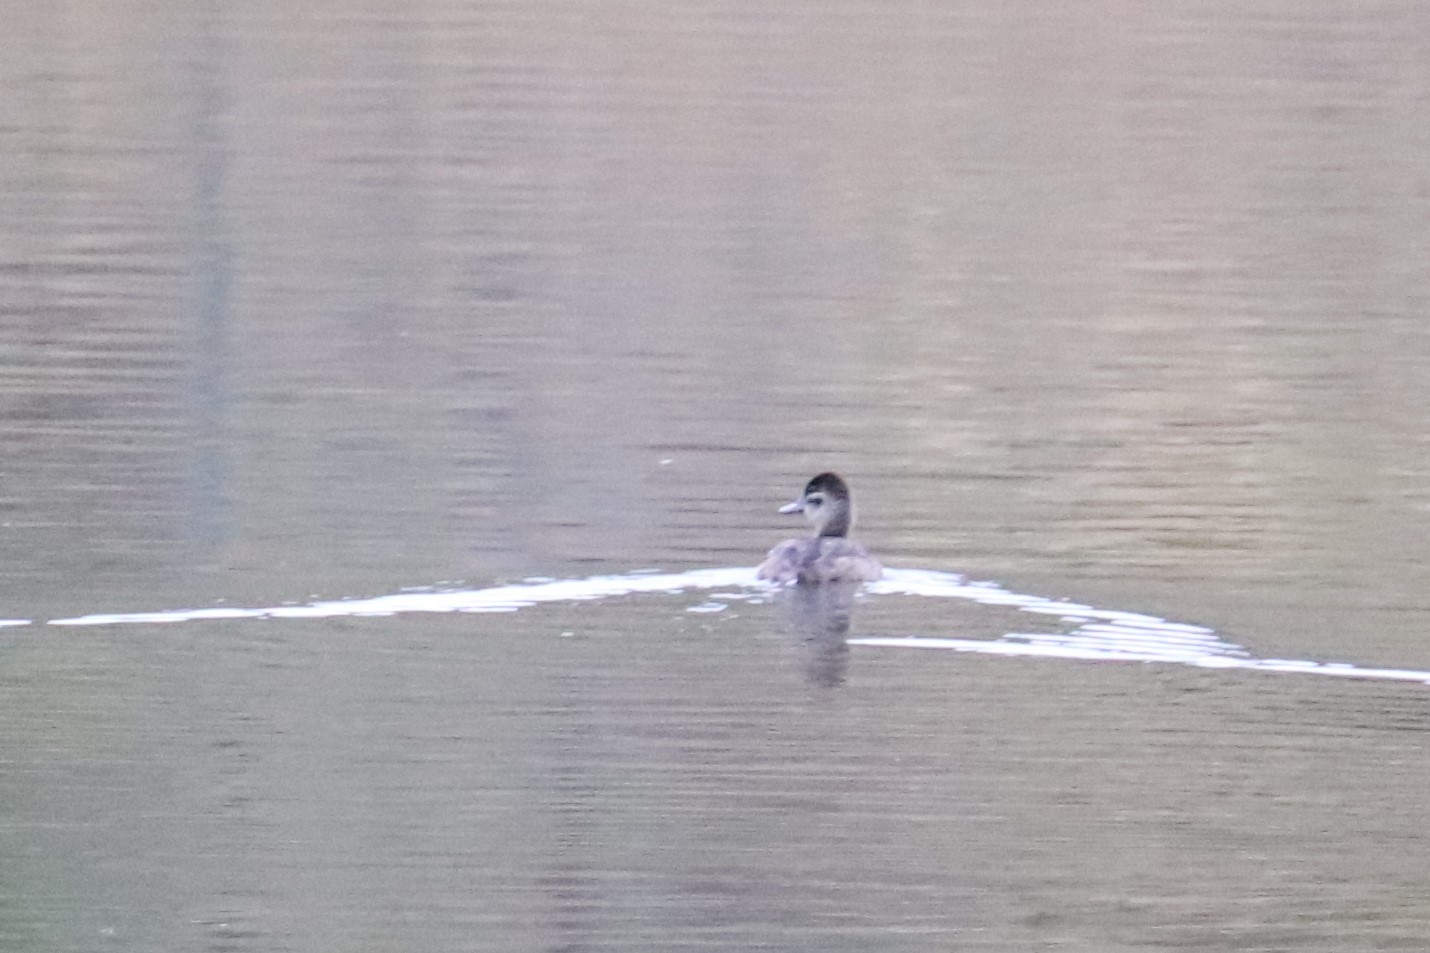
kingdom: Animalia
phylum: Chordata
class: Aves
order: Anseriformes
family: Anatidae
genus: Oxyura
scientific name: Oxyura jamaicensis
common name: Ruddy duck
